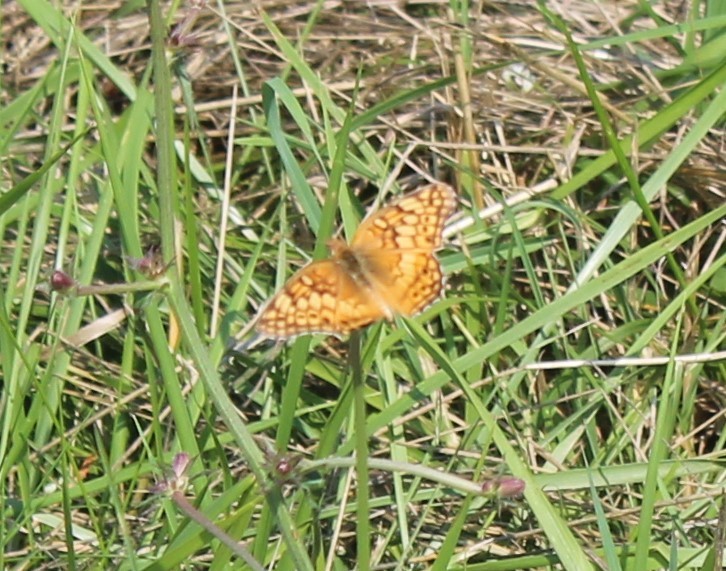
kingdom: Animalia
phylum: Arthropoda
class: Insecta
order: Lepidoptera
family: Nymphalidae
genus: Euptoieta
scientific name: Euptoieta claudia
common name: Variegated fritillary
